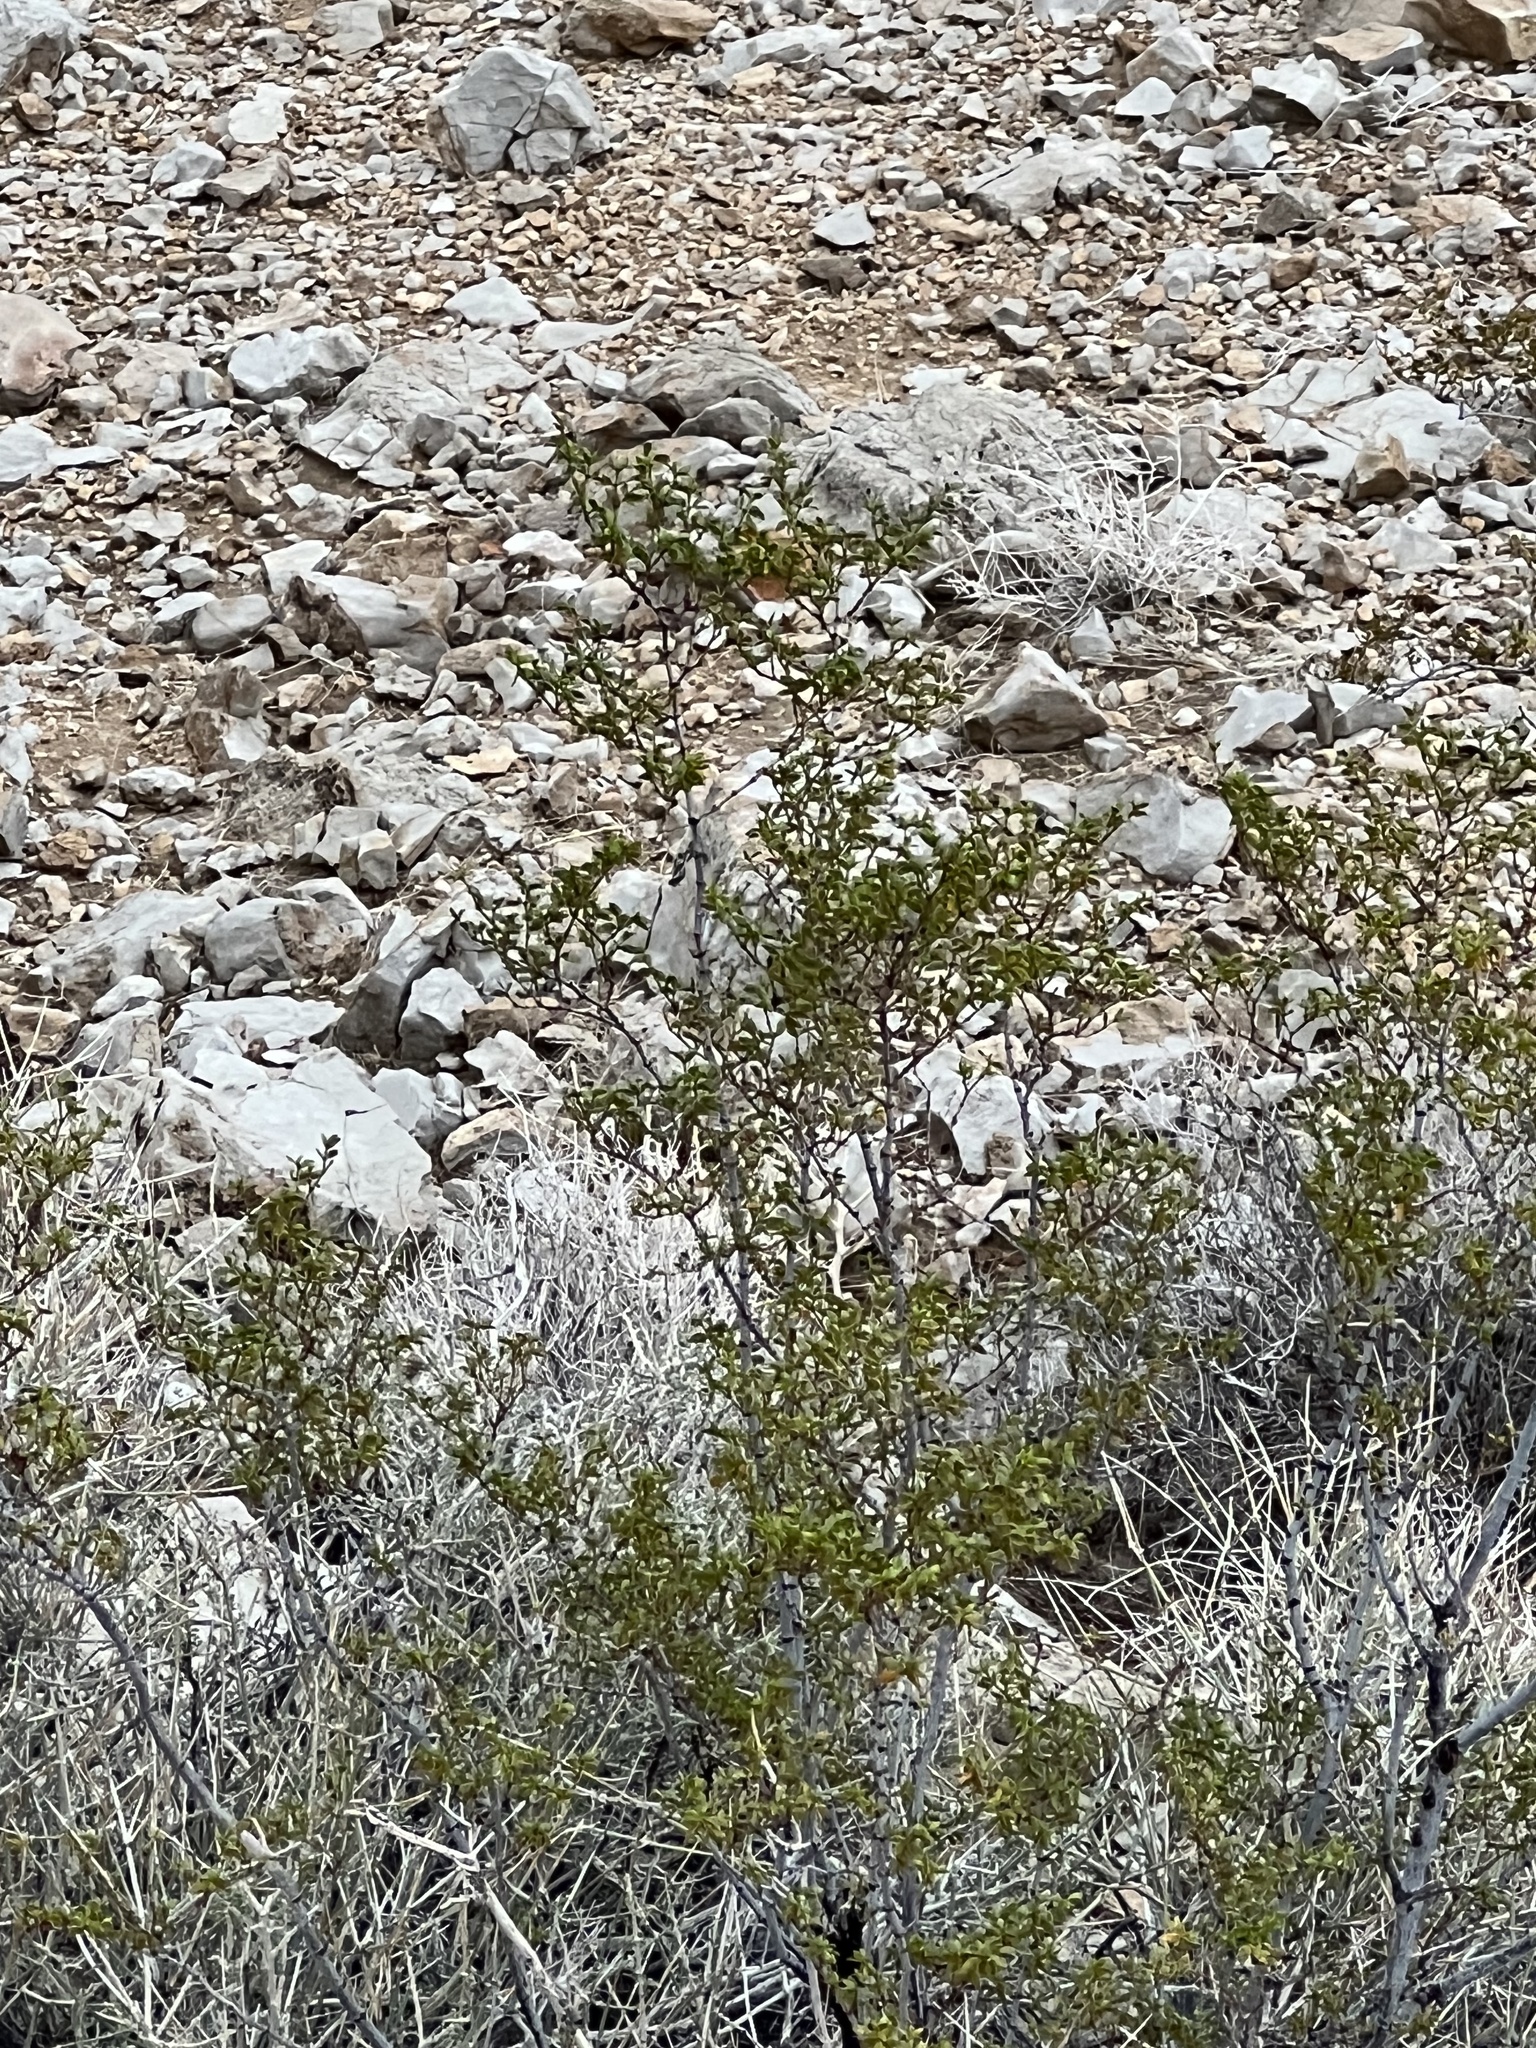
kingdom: Plantae
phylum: Tracheophyta
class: Magnoliopsida
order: Zygophyllales
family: Zygophyllaceae
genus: Larrea
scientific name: Larrea tridentata
